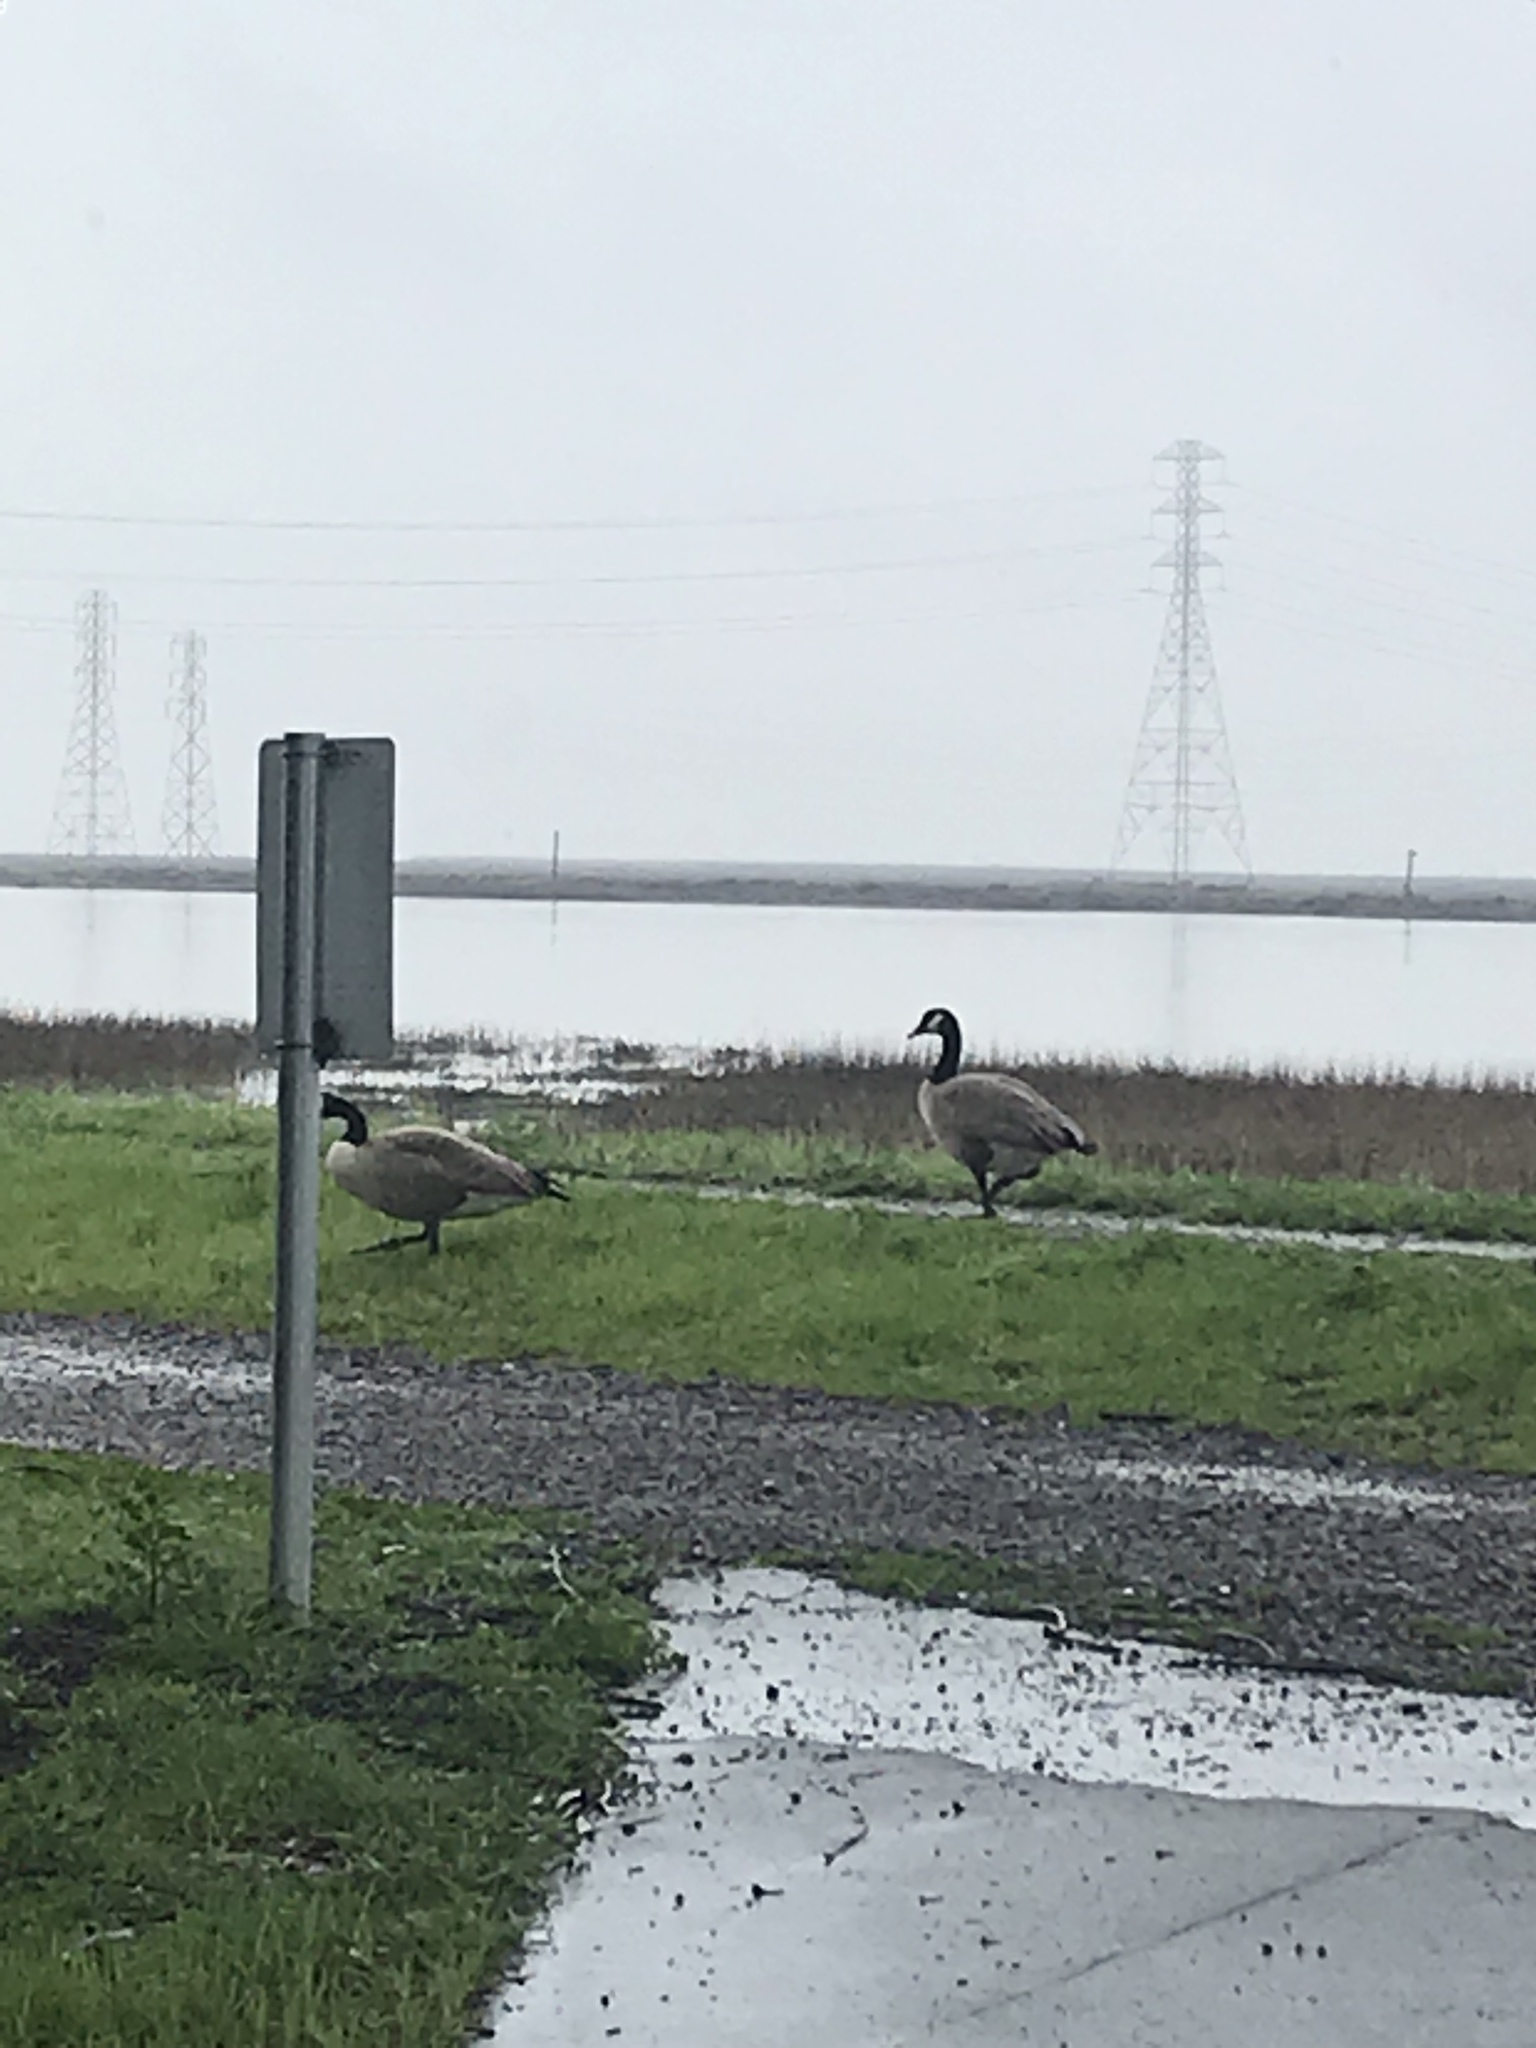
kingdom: Animalia
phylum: Chordata
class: Aves
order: Anseriformes
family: Anatidae
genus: Branta
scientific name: Branta canadensis
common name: Canada goose
